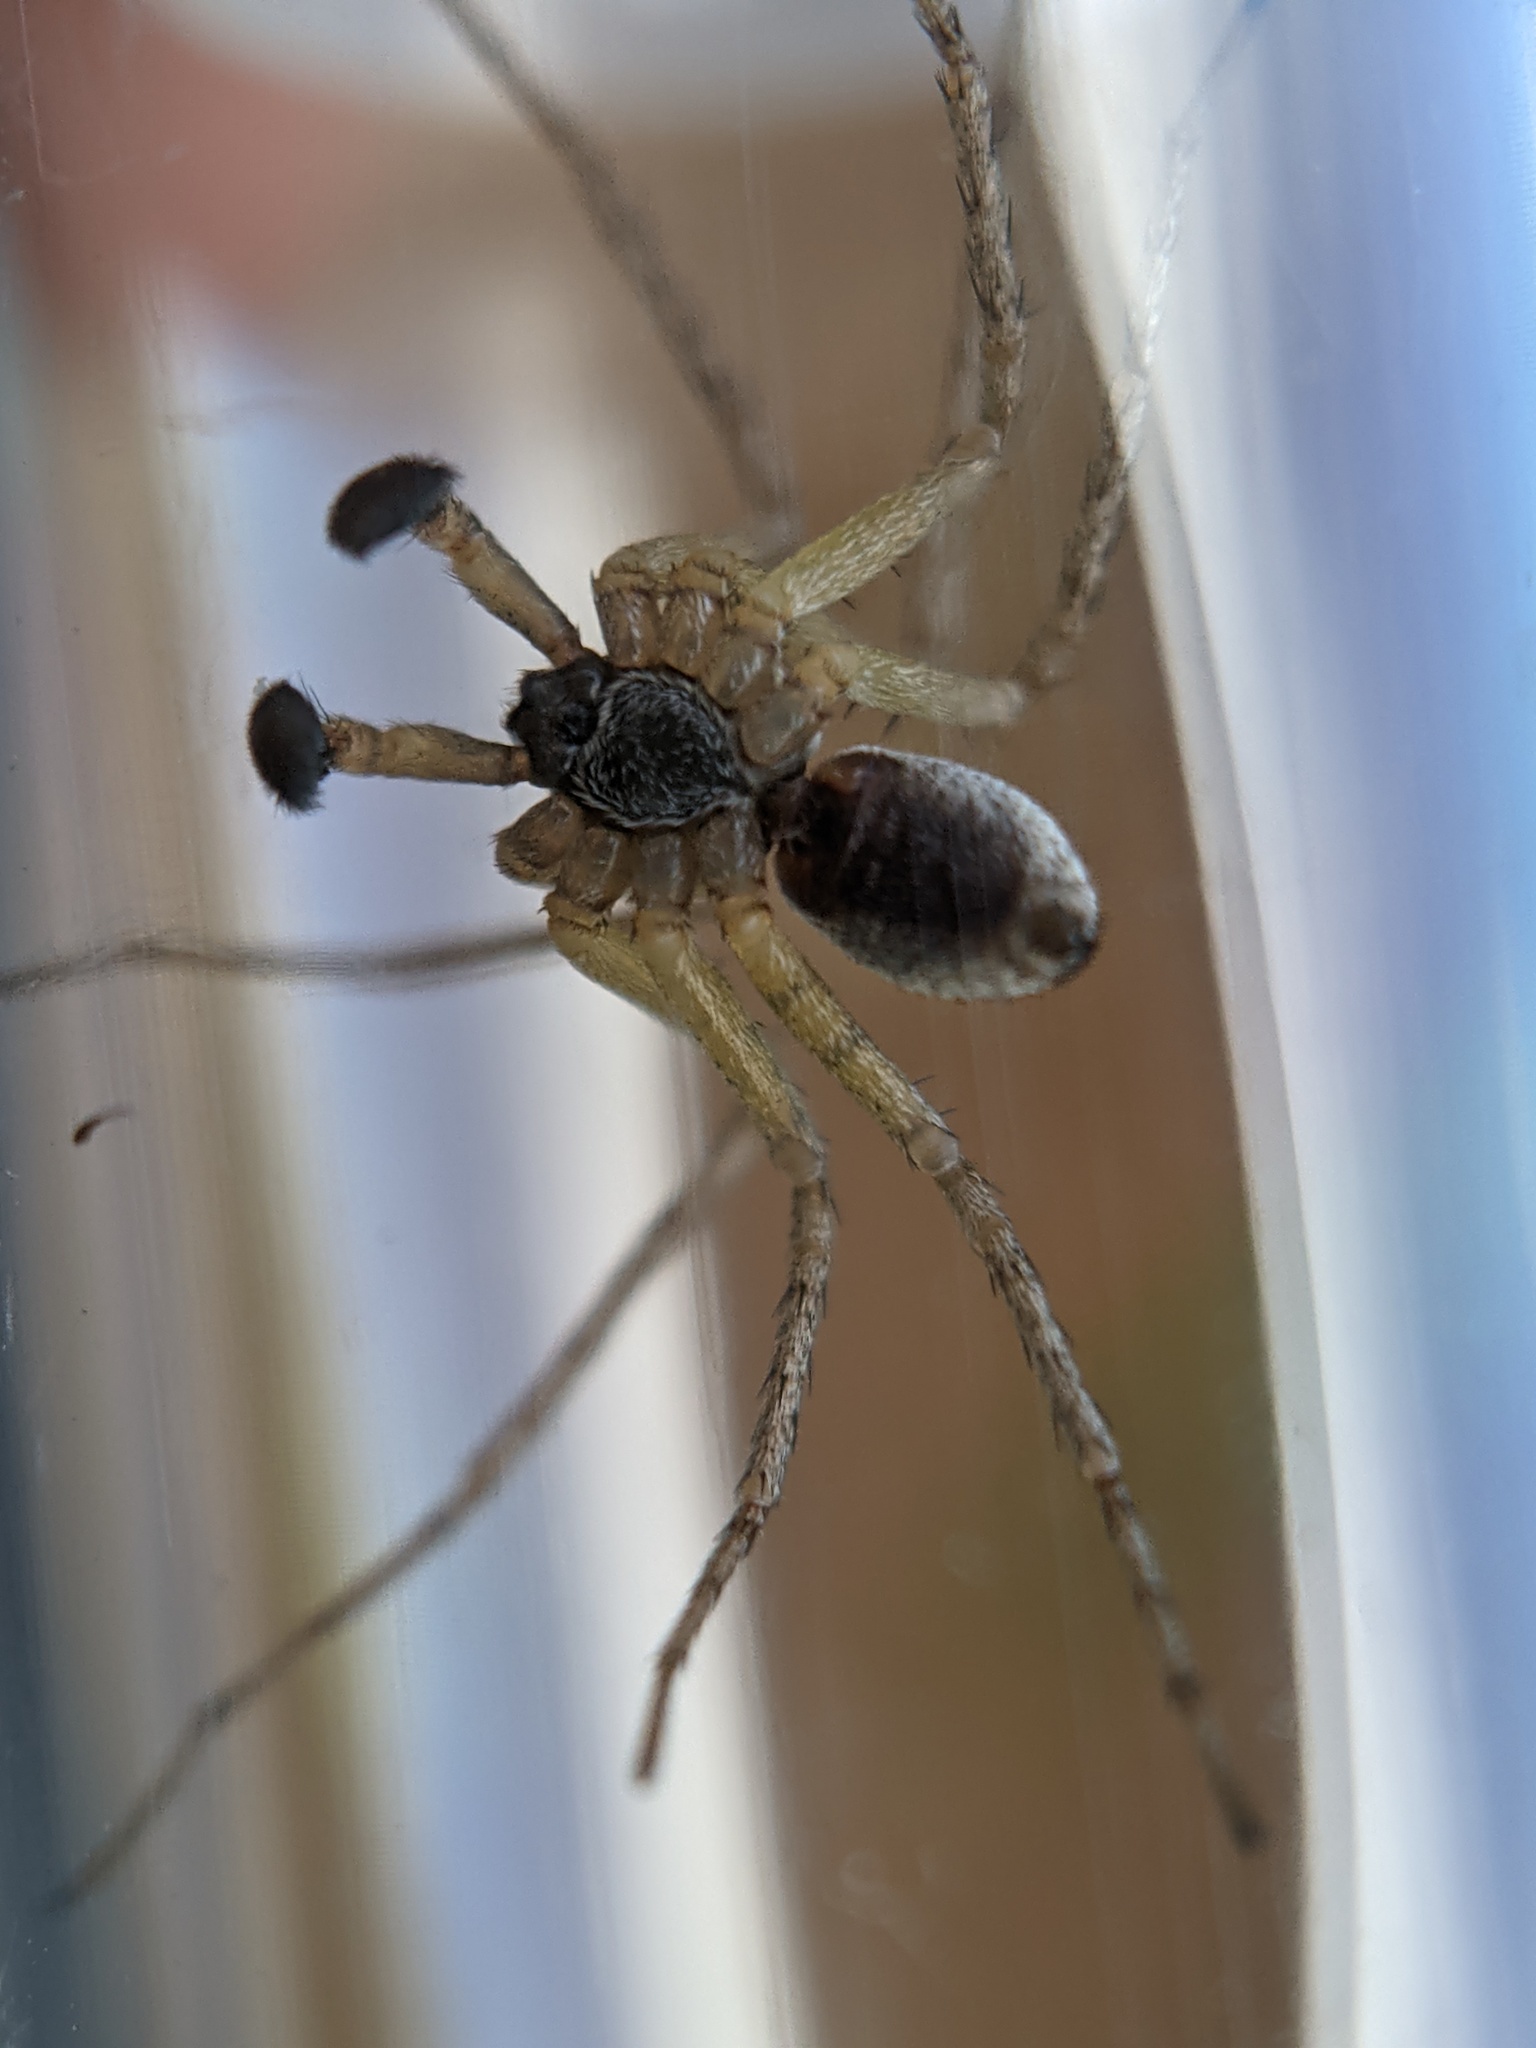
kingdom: Animalia
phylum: Arthropoda
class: Arachnida
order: Araneae
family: Philodromidae
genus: Philodromus
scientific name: Philodromus dispar
